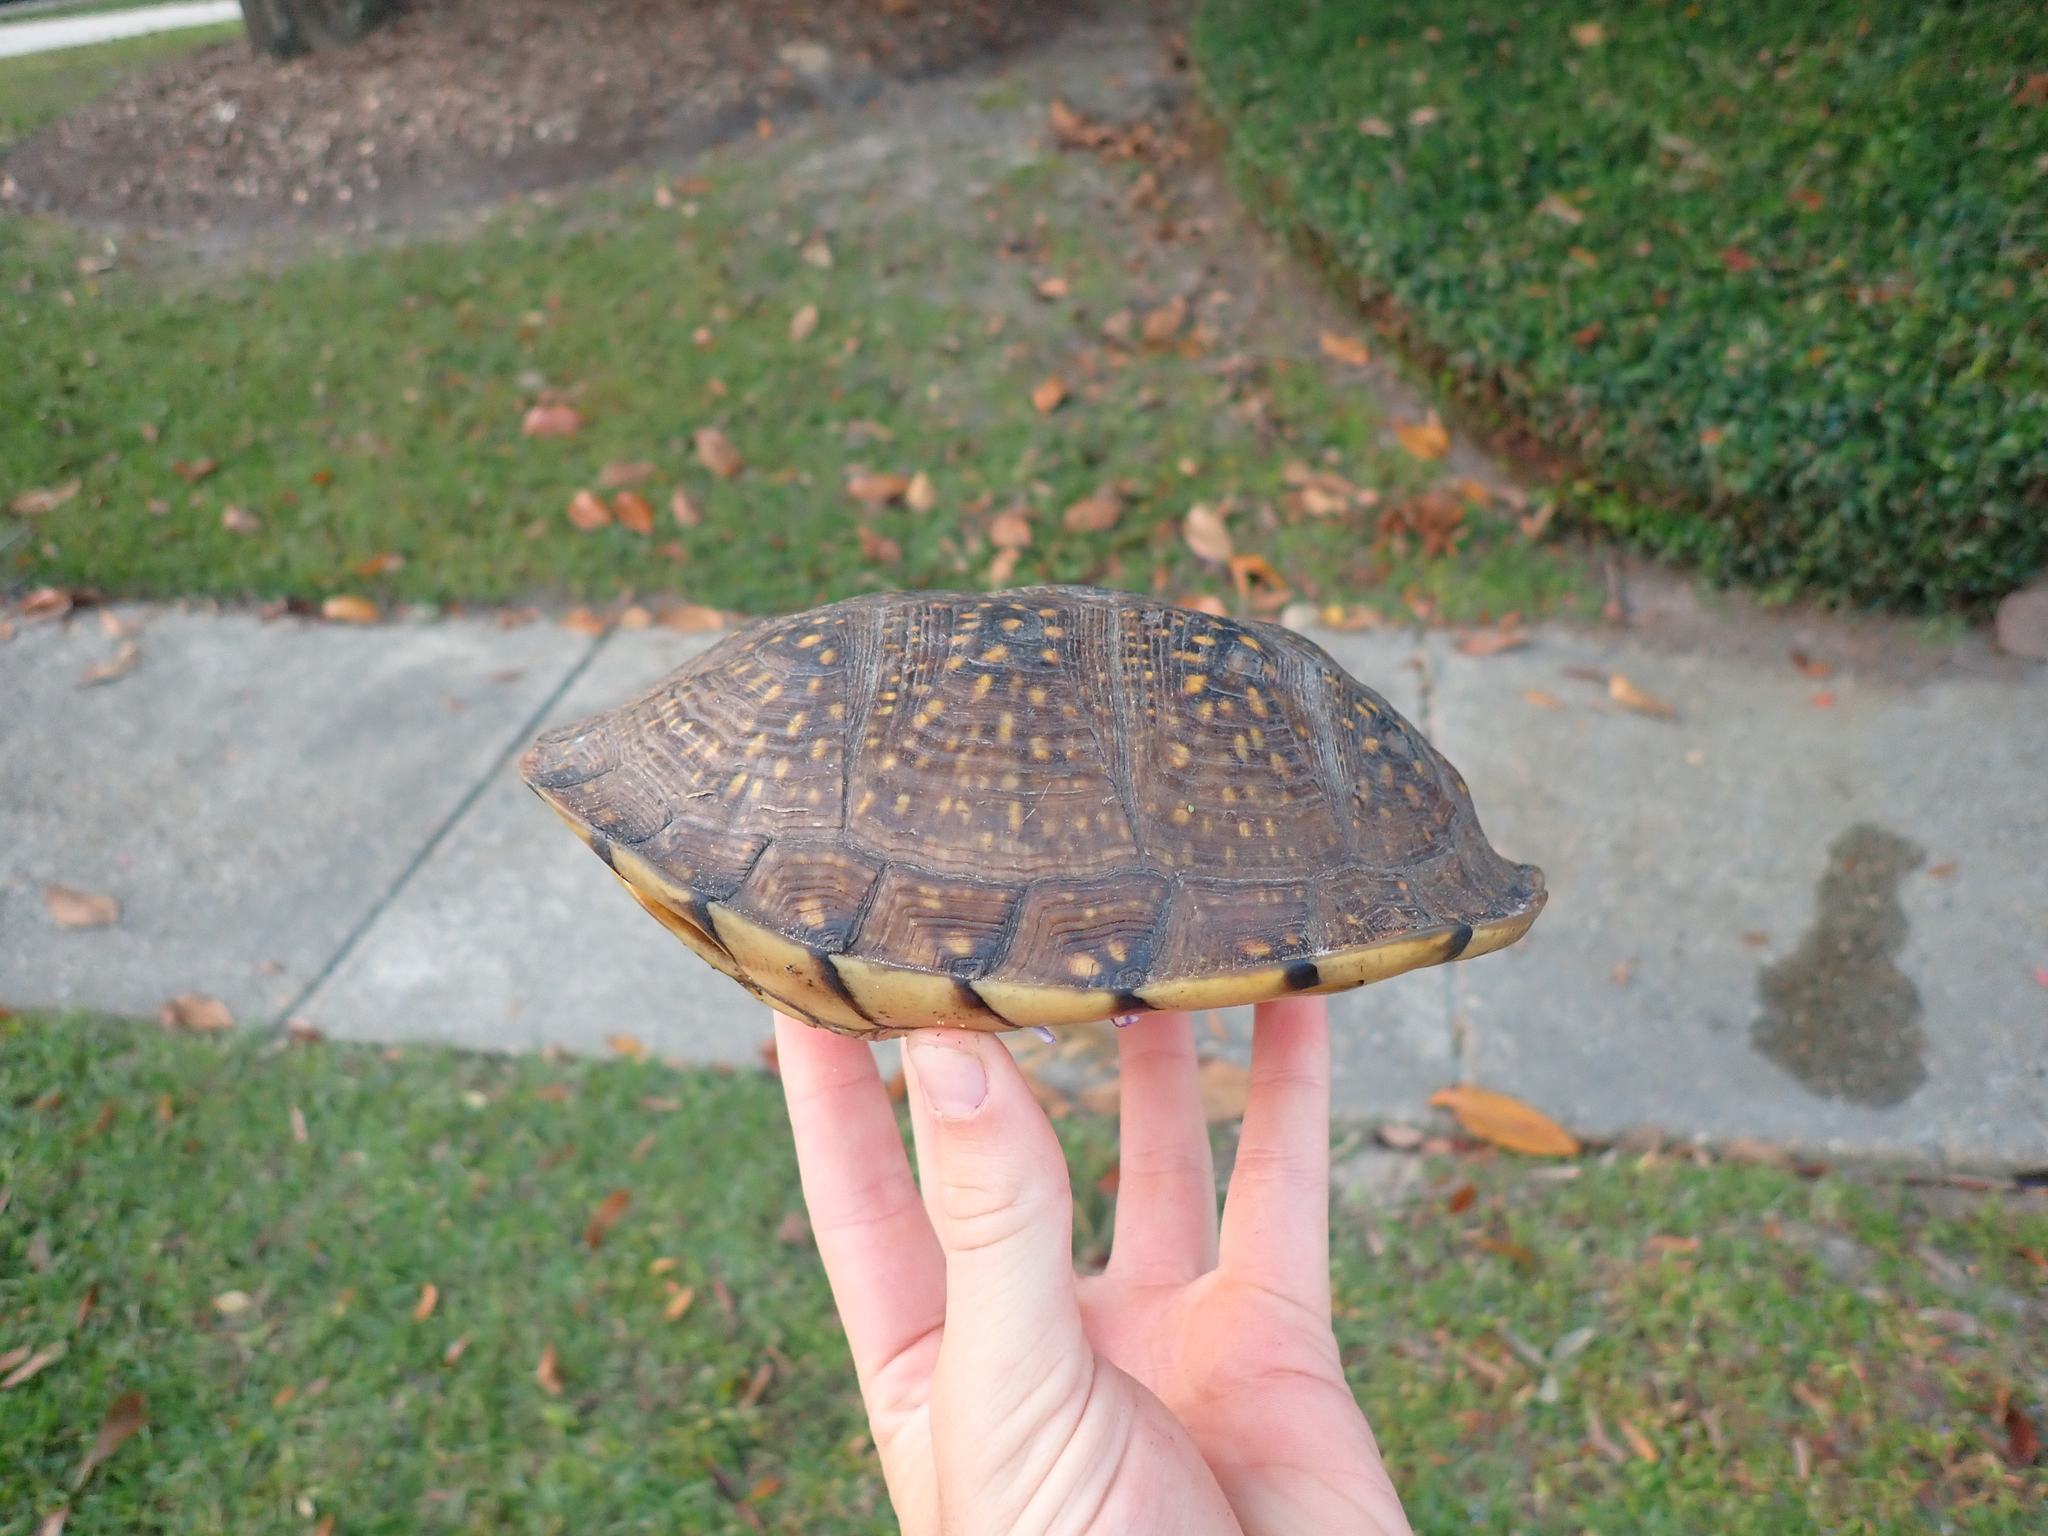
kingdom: Animalia
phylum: Chordata
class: Testudines
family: Emydidae
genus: Terrapene
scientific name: Terrapene carolina
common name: Common box turtle
